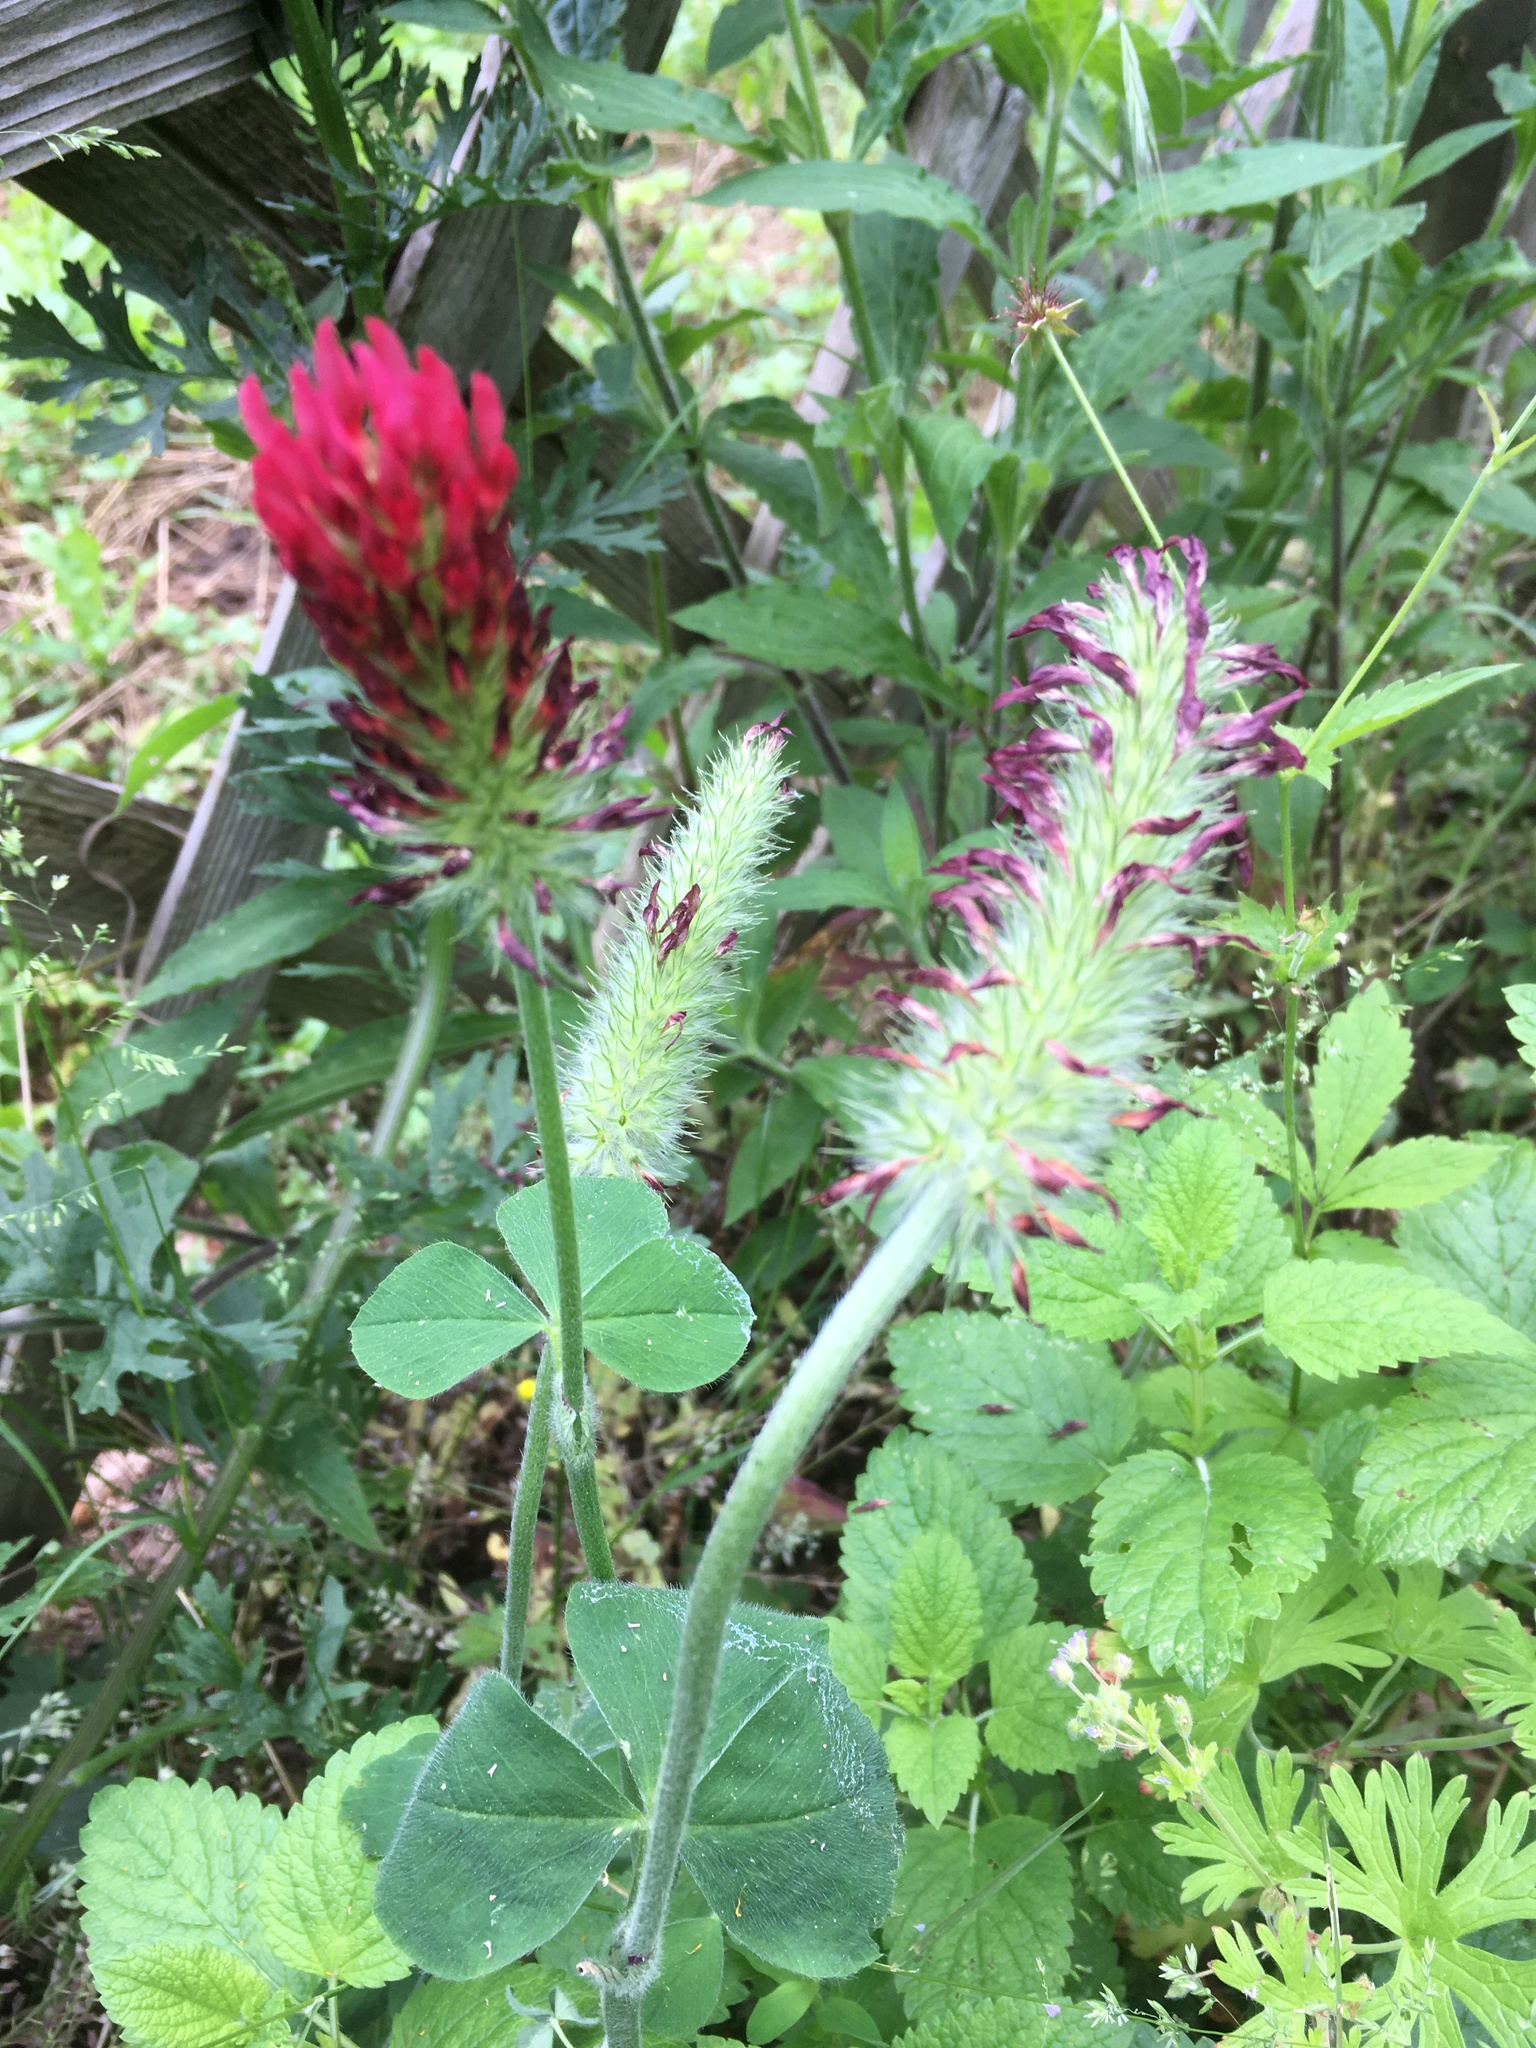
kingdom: Plantae
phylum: Tracheophyta
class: Magnoliopsida
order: Fabales
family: Fabaceae
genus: Trifolium
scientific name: Trifolium incarnatum
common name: Crimson clover
